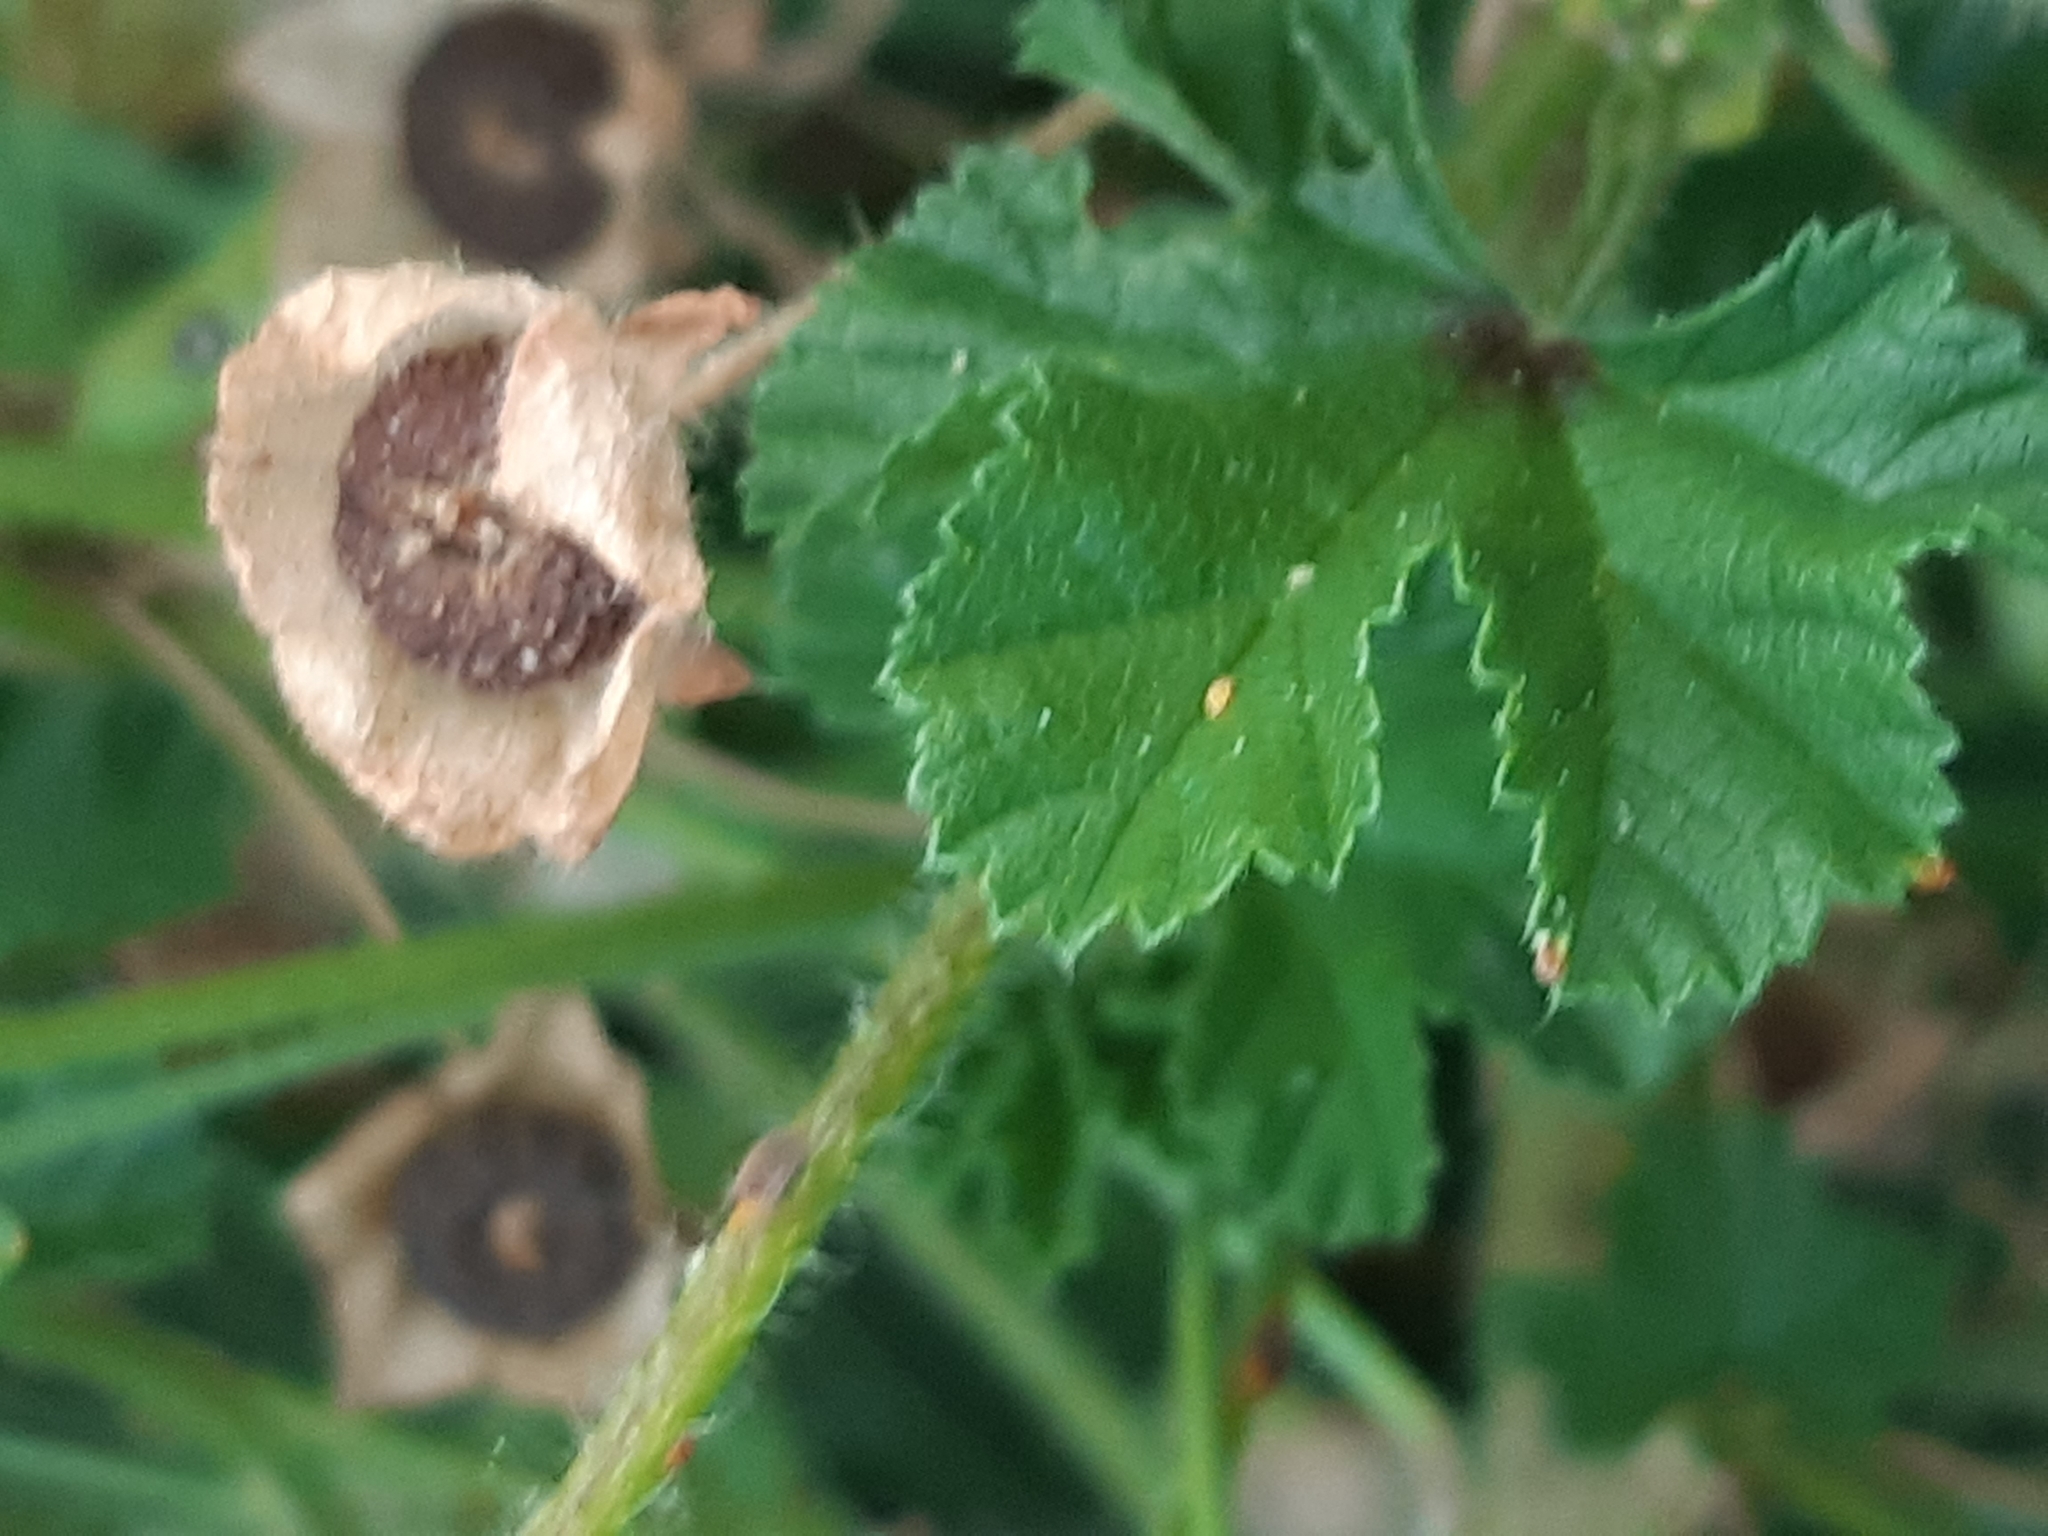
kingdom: Plantae
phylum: Tracheophyta
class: Magnoliopsida
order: Malvales
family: Malvaceae
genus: Malva
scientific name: Malva sylvestris
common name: Common mallow
